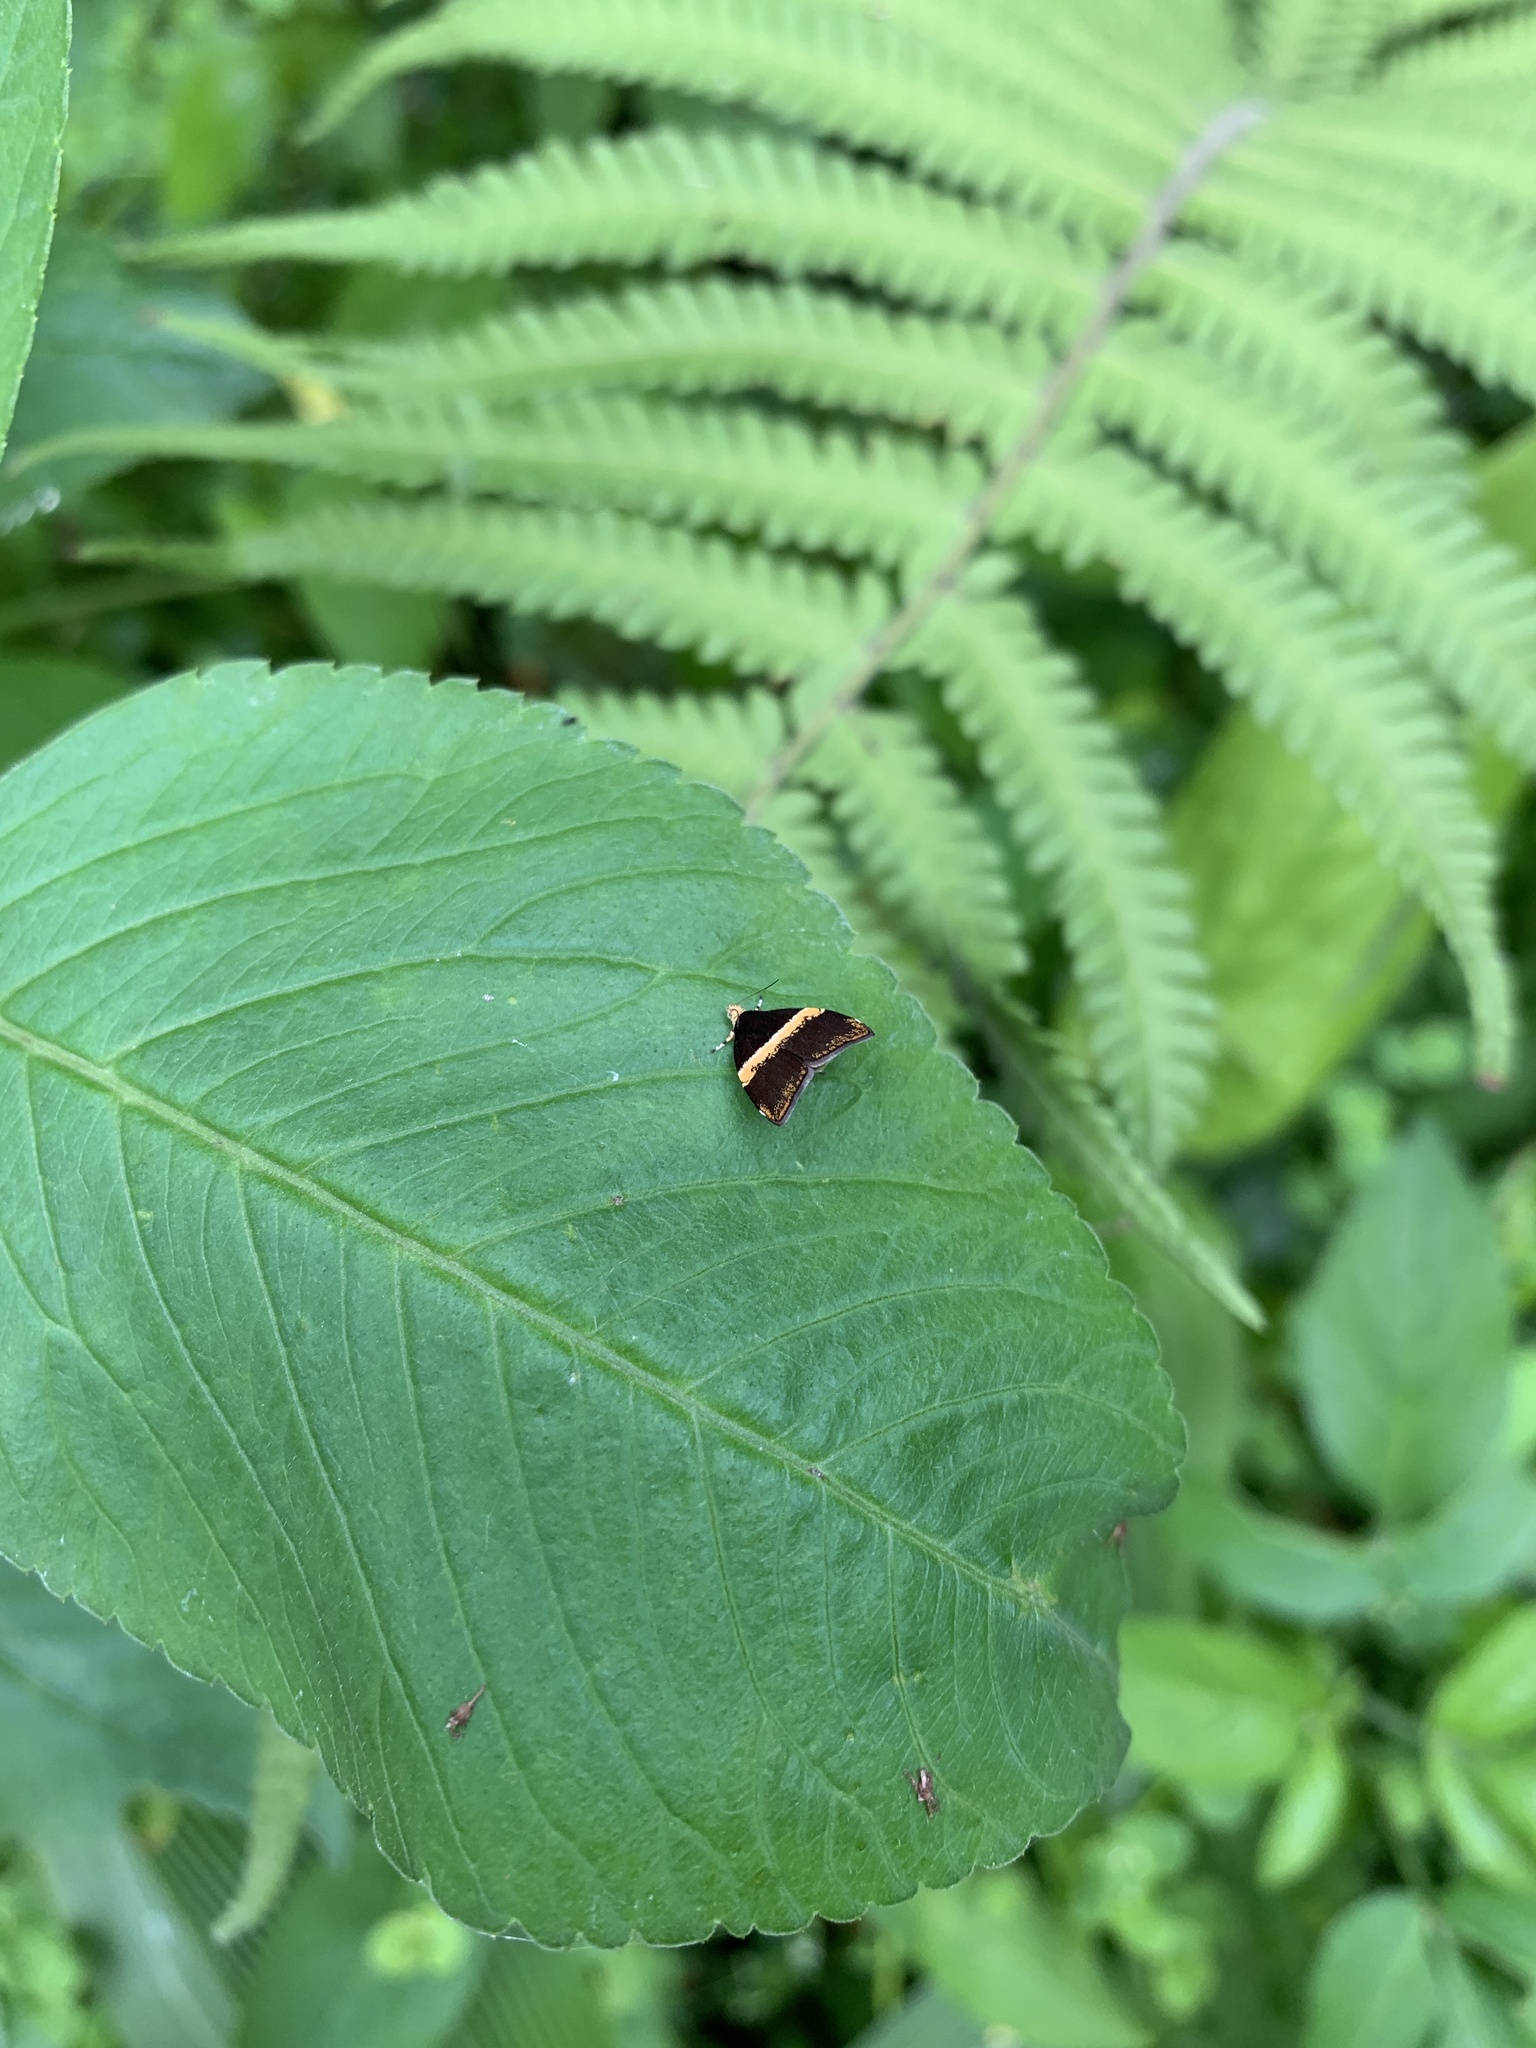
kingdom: Animalia
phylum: Arthropoda
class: Insecta
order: Lepidoptera
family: Choreutidae
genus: Choreutis
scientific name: Choreutis basalis
